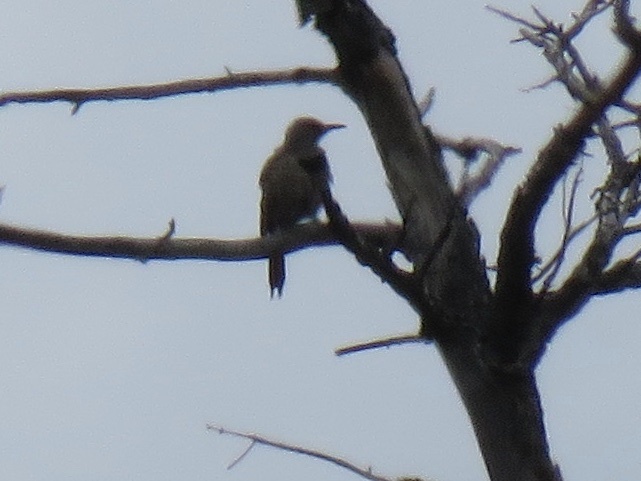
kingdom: Animalia
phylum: Chordata
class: Aves
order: Piciformes
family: Picidae
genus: Colaptes
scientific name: Colaptes auratus
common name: Northern flicker
